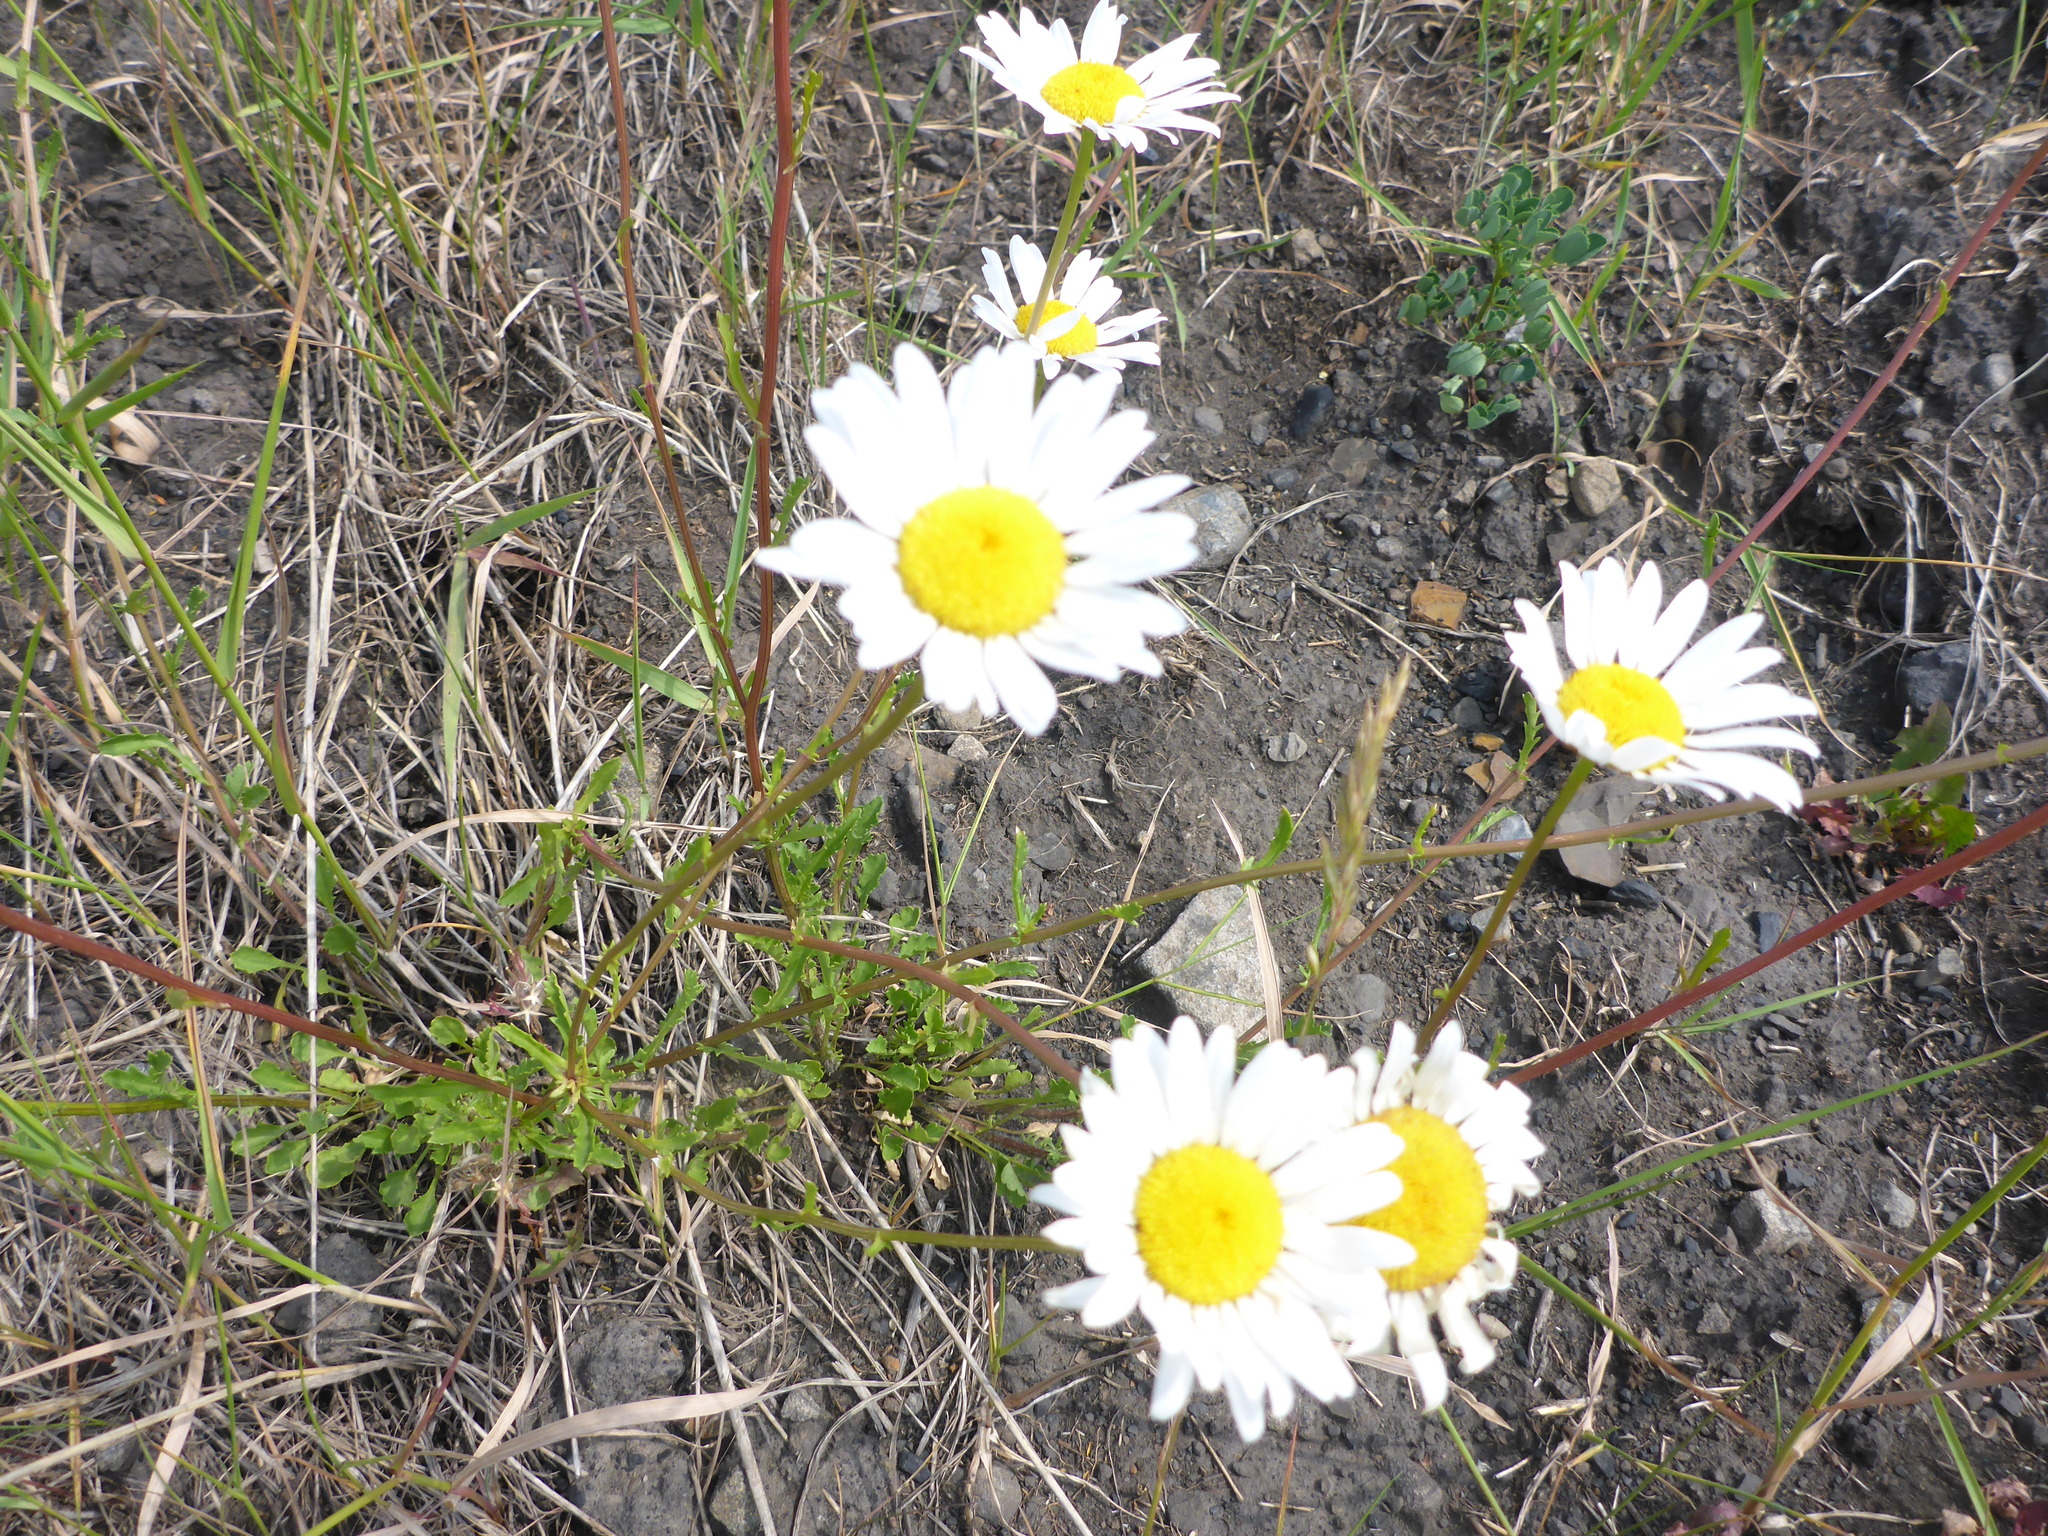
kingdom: Plantae
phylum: Tracheophyta
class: Magnoliopsida
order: Asterales
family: Asteraceae
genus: Leucanthemum
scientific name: Leucanthemum vulgare
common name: Oxeye daisy
